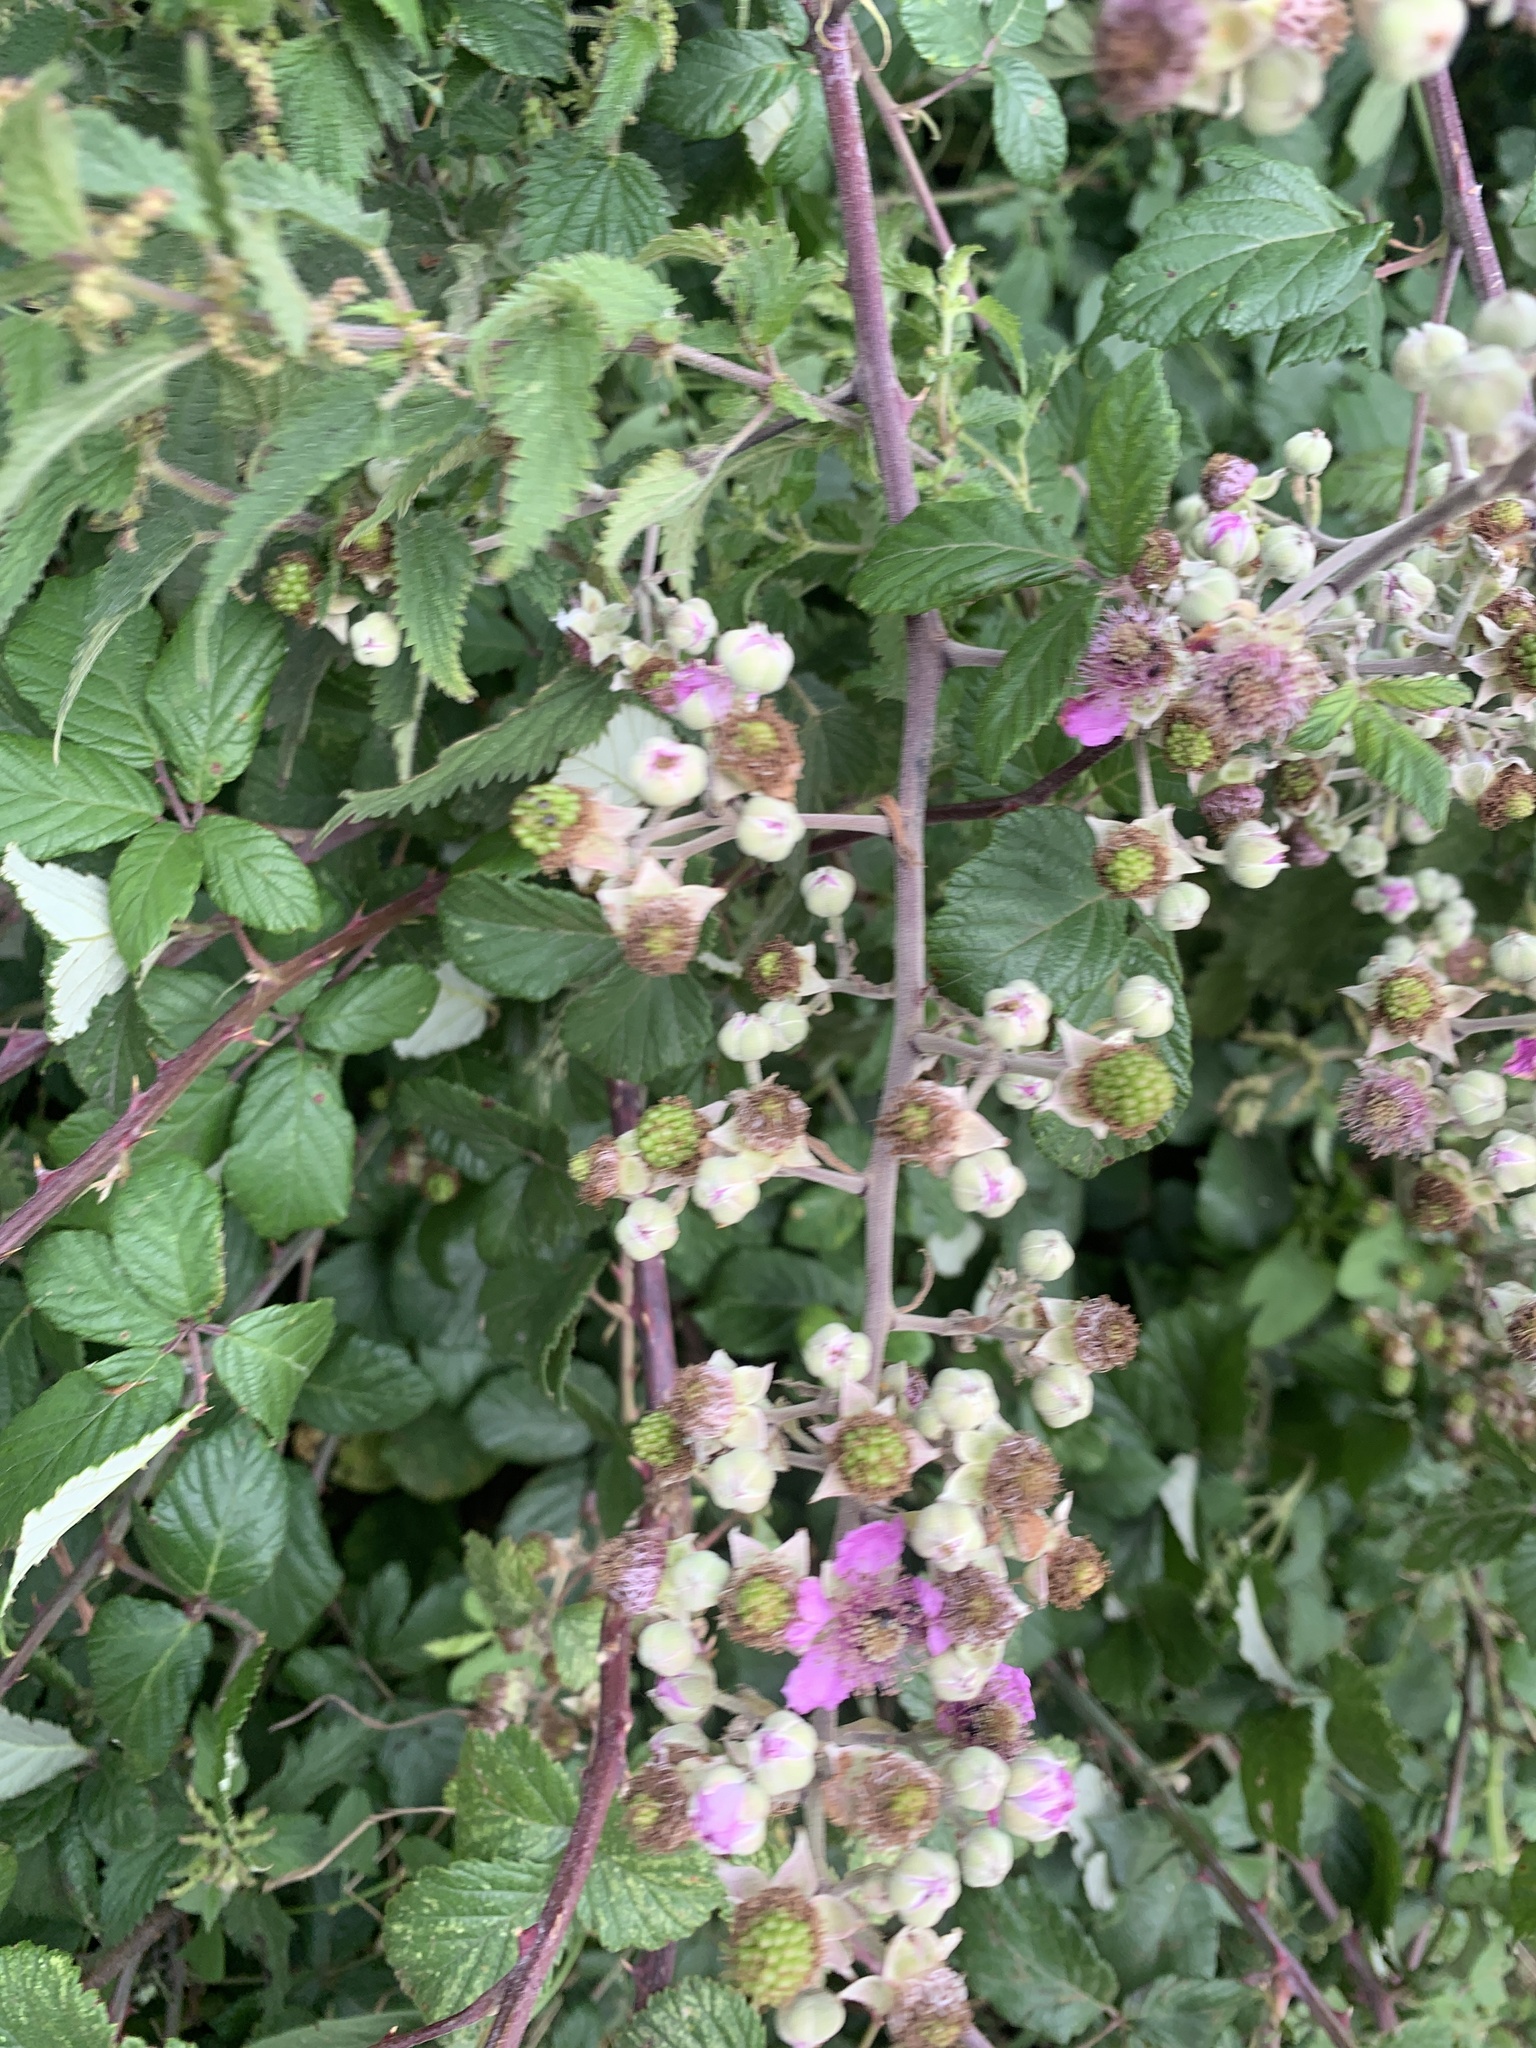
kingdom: Plantae
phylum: Tracheophyta
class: Magnoliopsida
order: Rosales
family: Rosaceae
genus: Rubus
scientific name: Rubus fruticosus
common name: Blackberry, bramble
